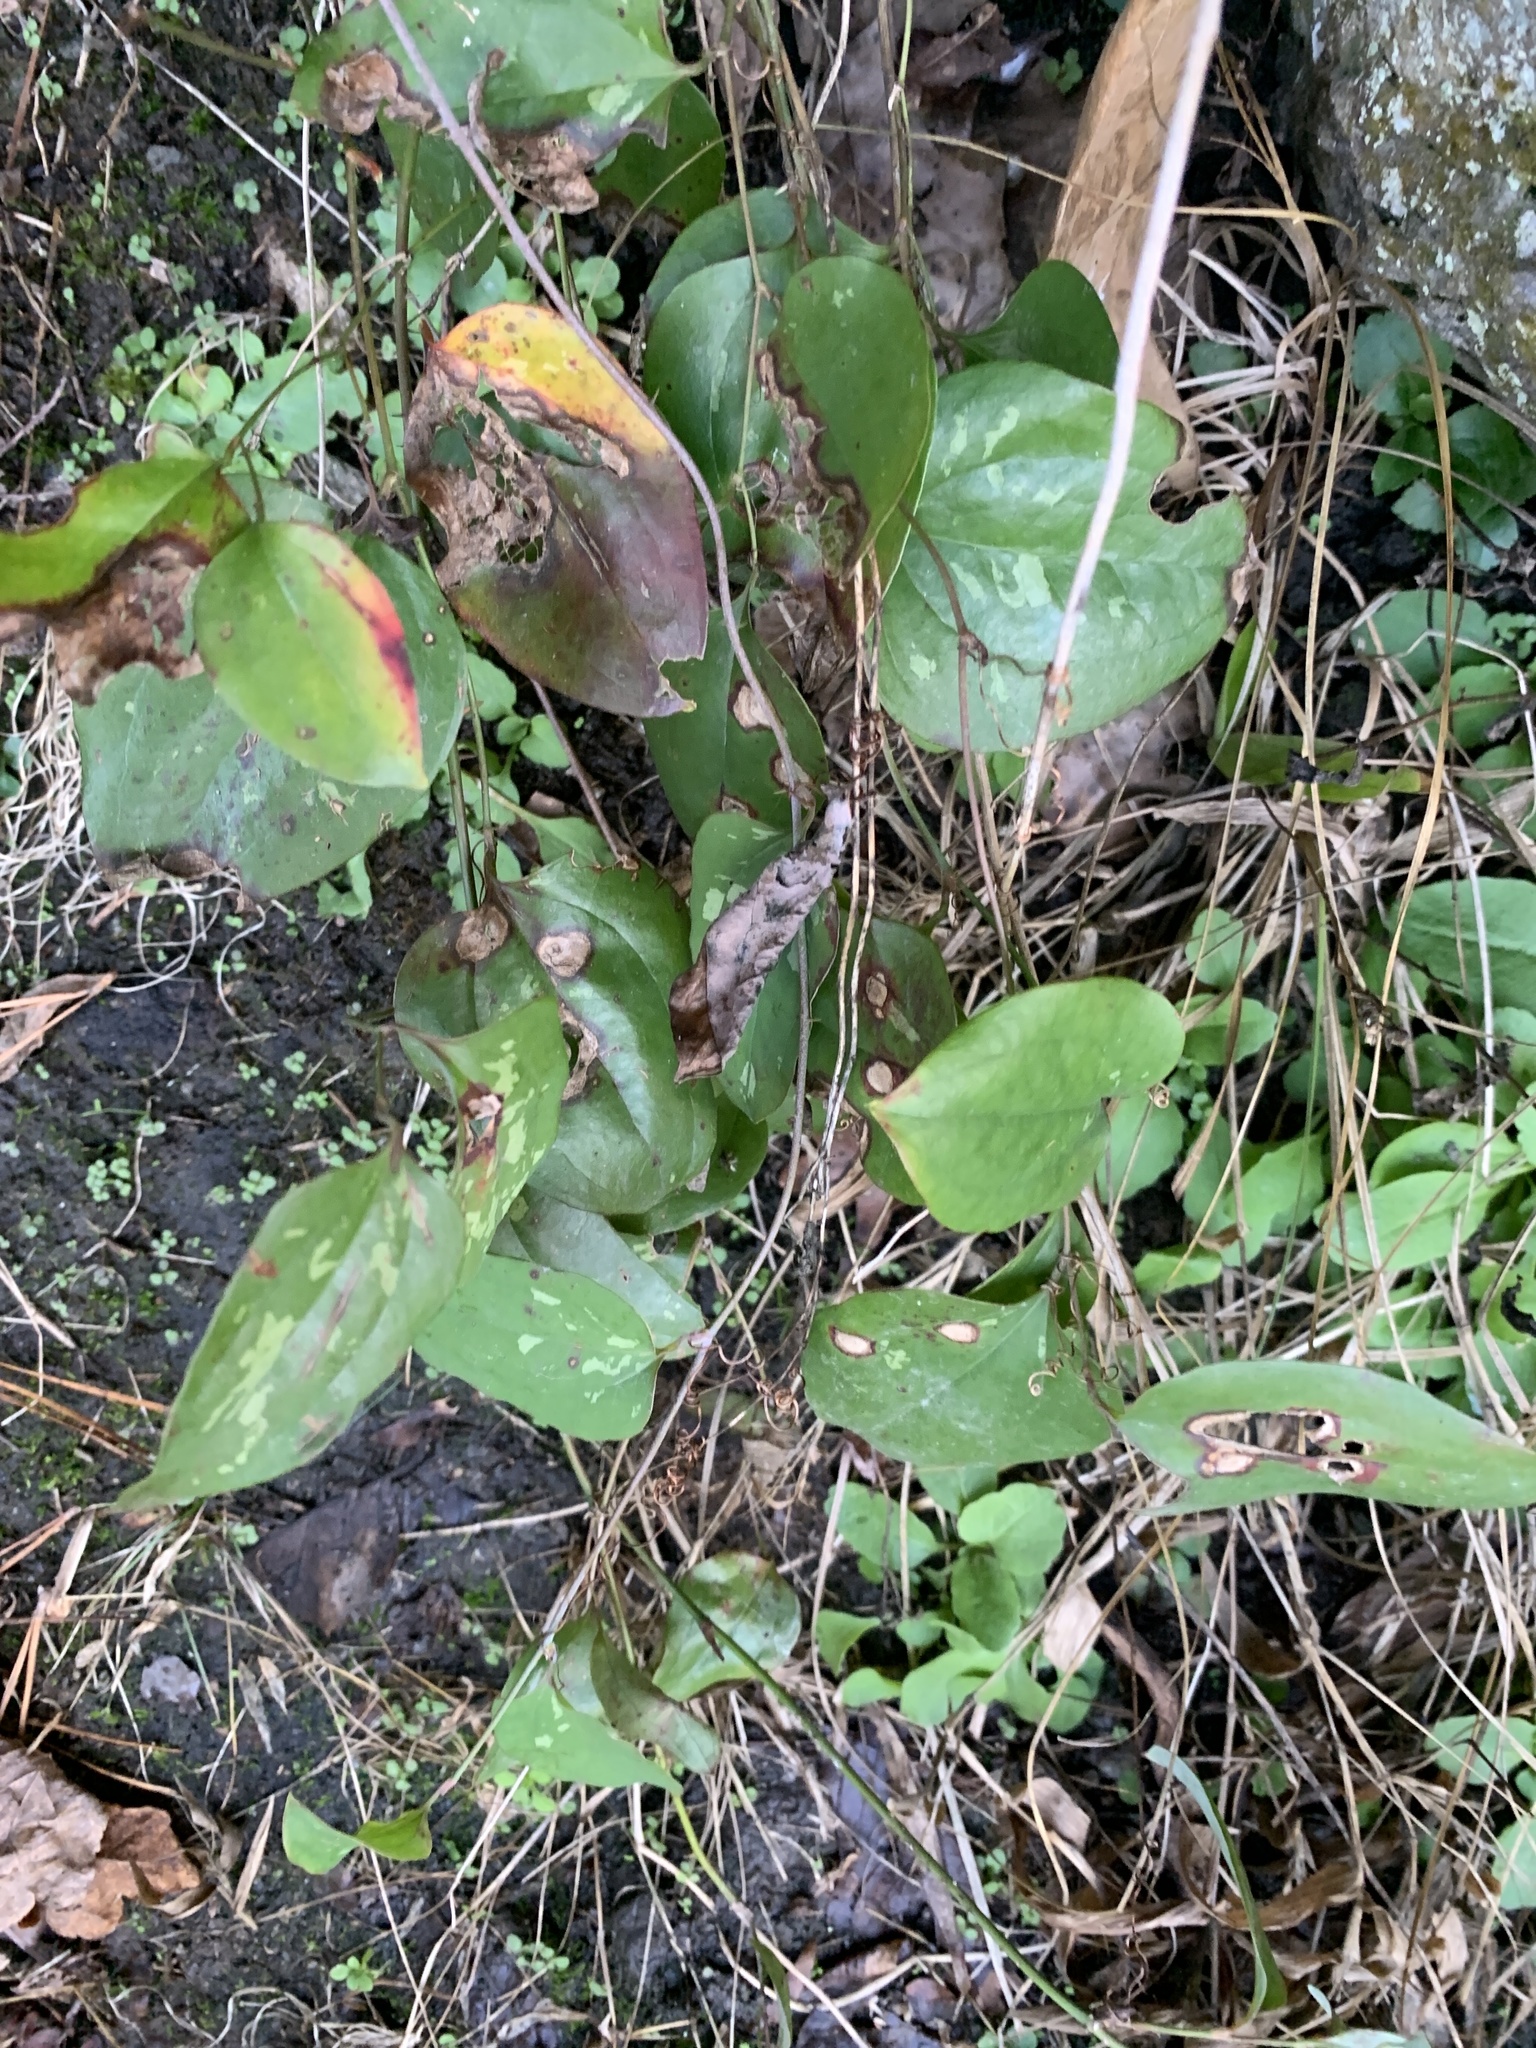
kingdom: Plantae
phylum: Tracheophyta
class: Liliopsida
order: Liliales
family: Smilacaceae
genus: Smilax
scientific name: Smilax glauca
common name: Cat greenbrier
